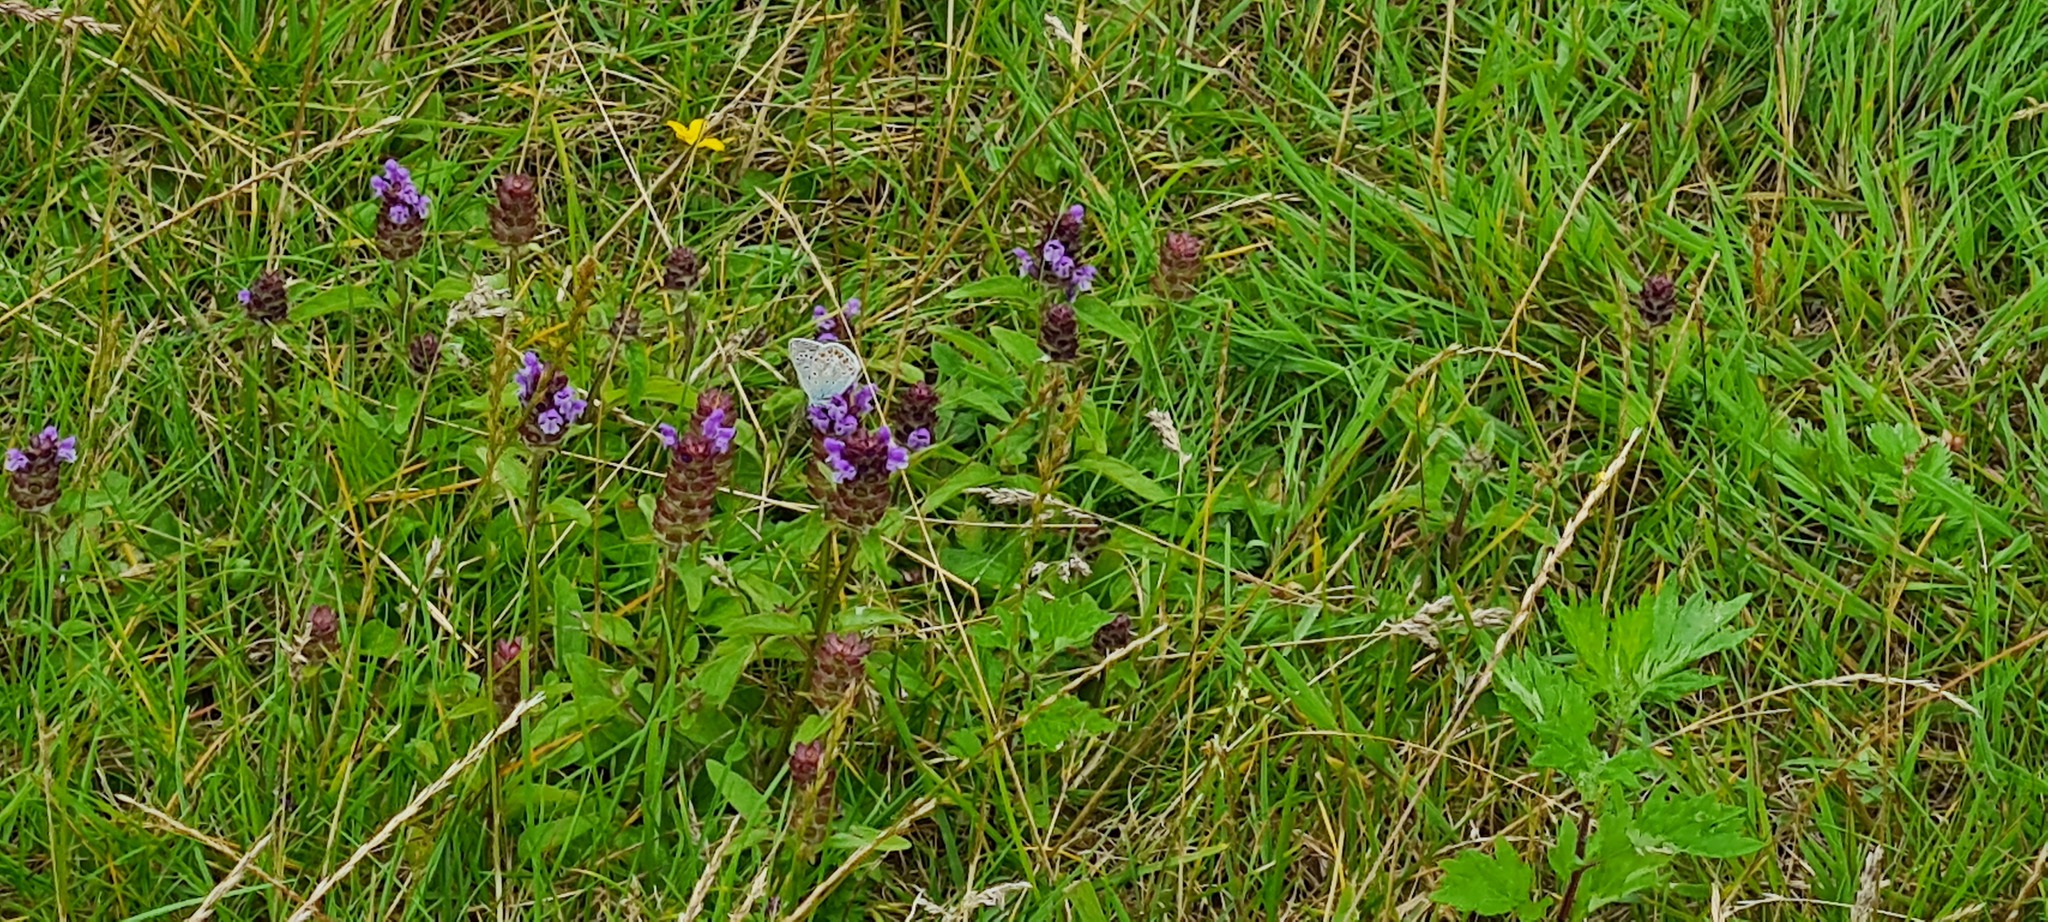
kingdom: Animalia
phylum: Arthropoda
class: Insecta
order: Lepidoptera
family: Lycaenidae
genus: Polyommatus
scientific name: Polyommatus icarus
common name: Common blue
